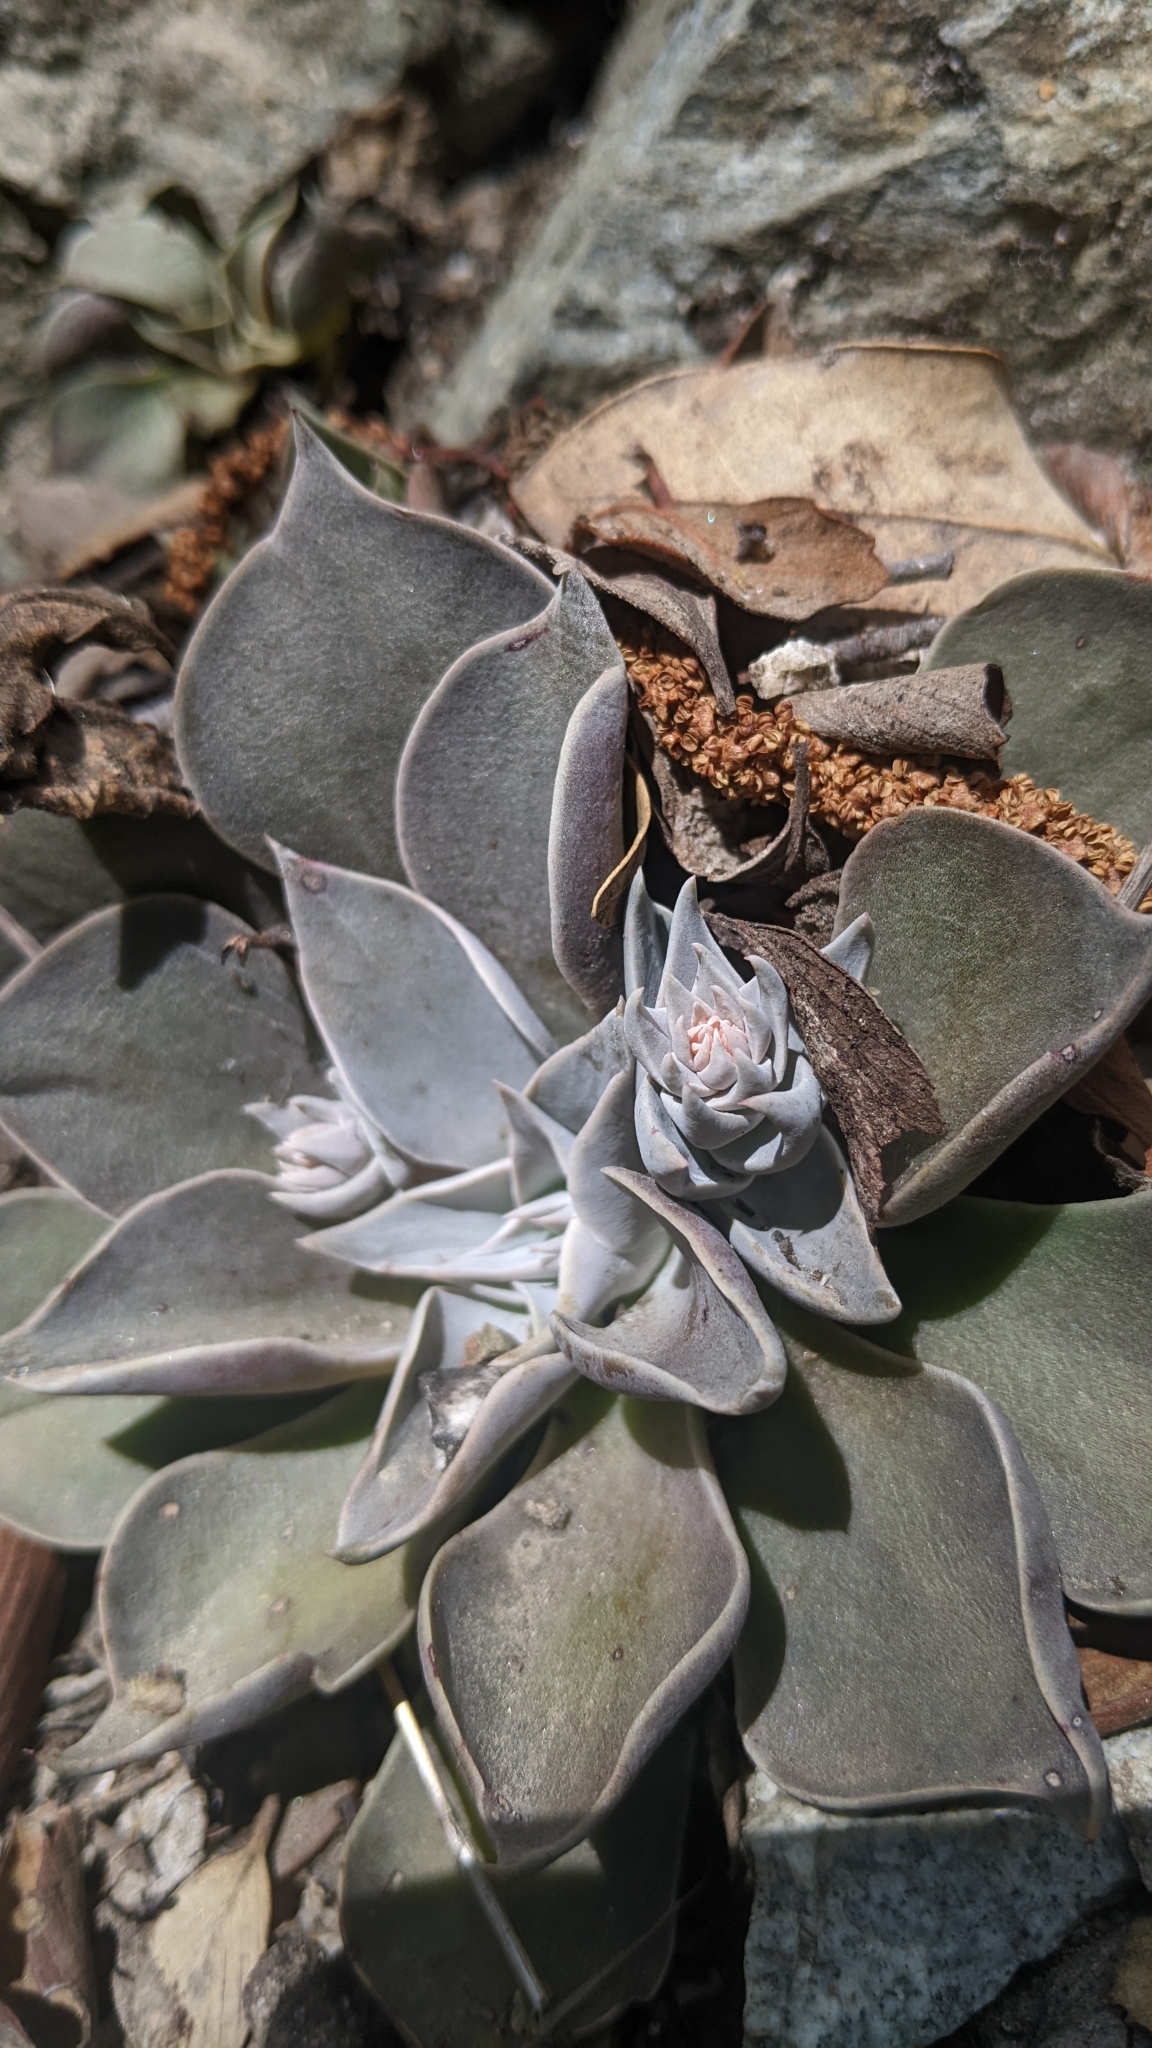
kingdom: Plantae
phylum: Tracheophyta
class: Magnoliopsida
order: Saxifragales
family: Crassulaceae
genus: Dudleya
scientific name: Dudleya cymosa
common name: Canyon dudleya
